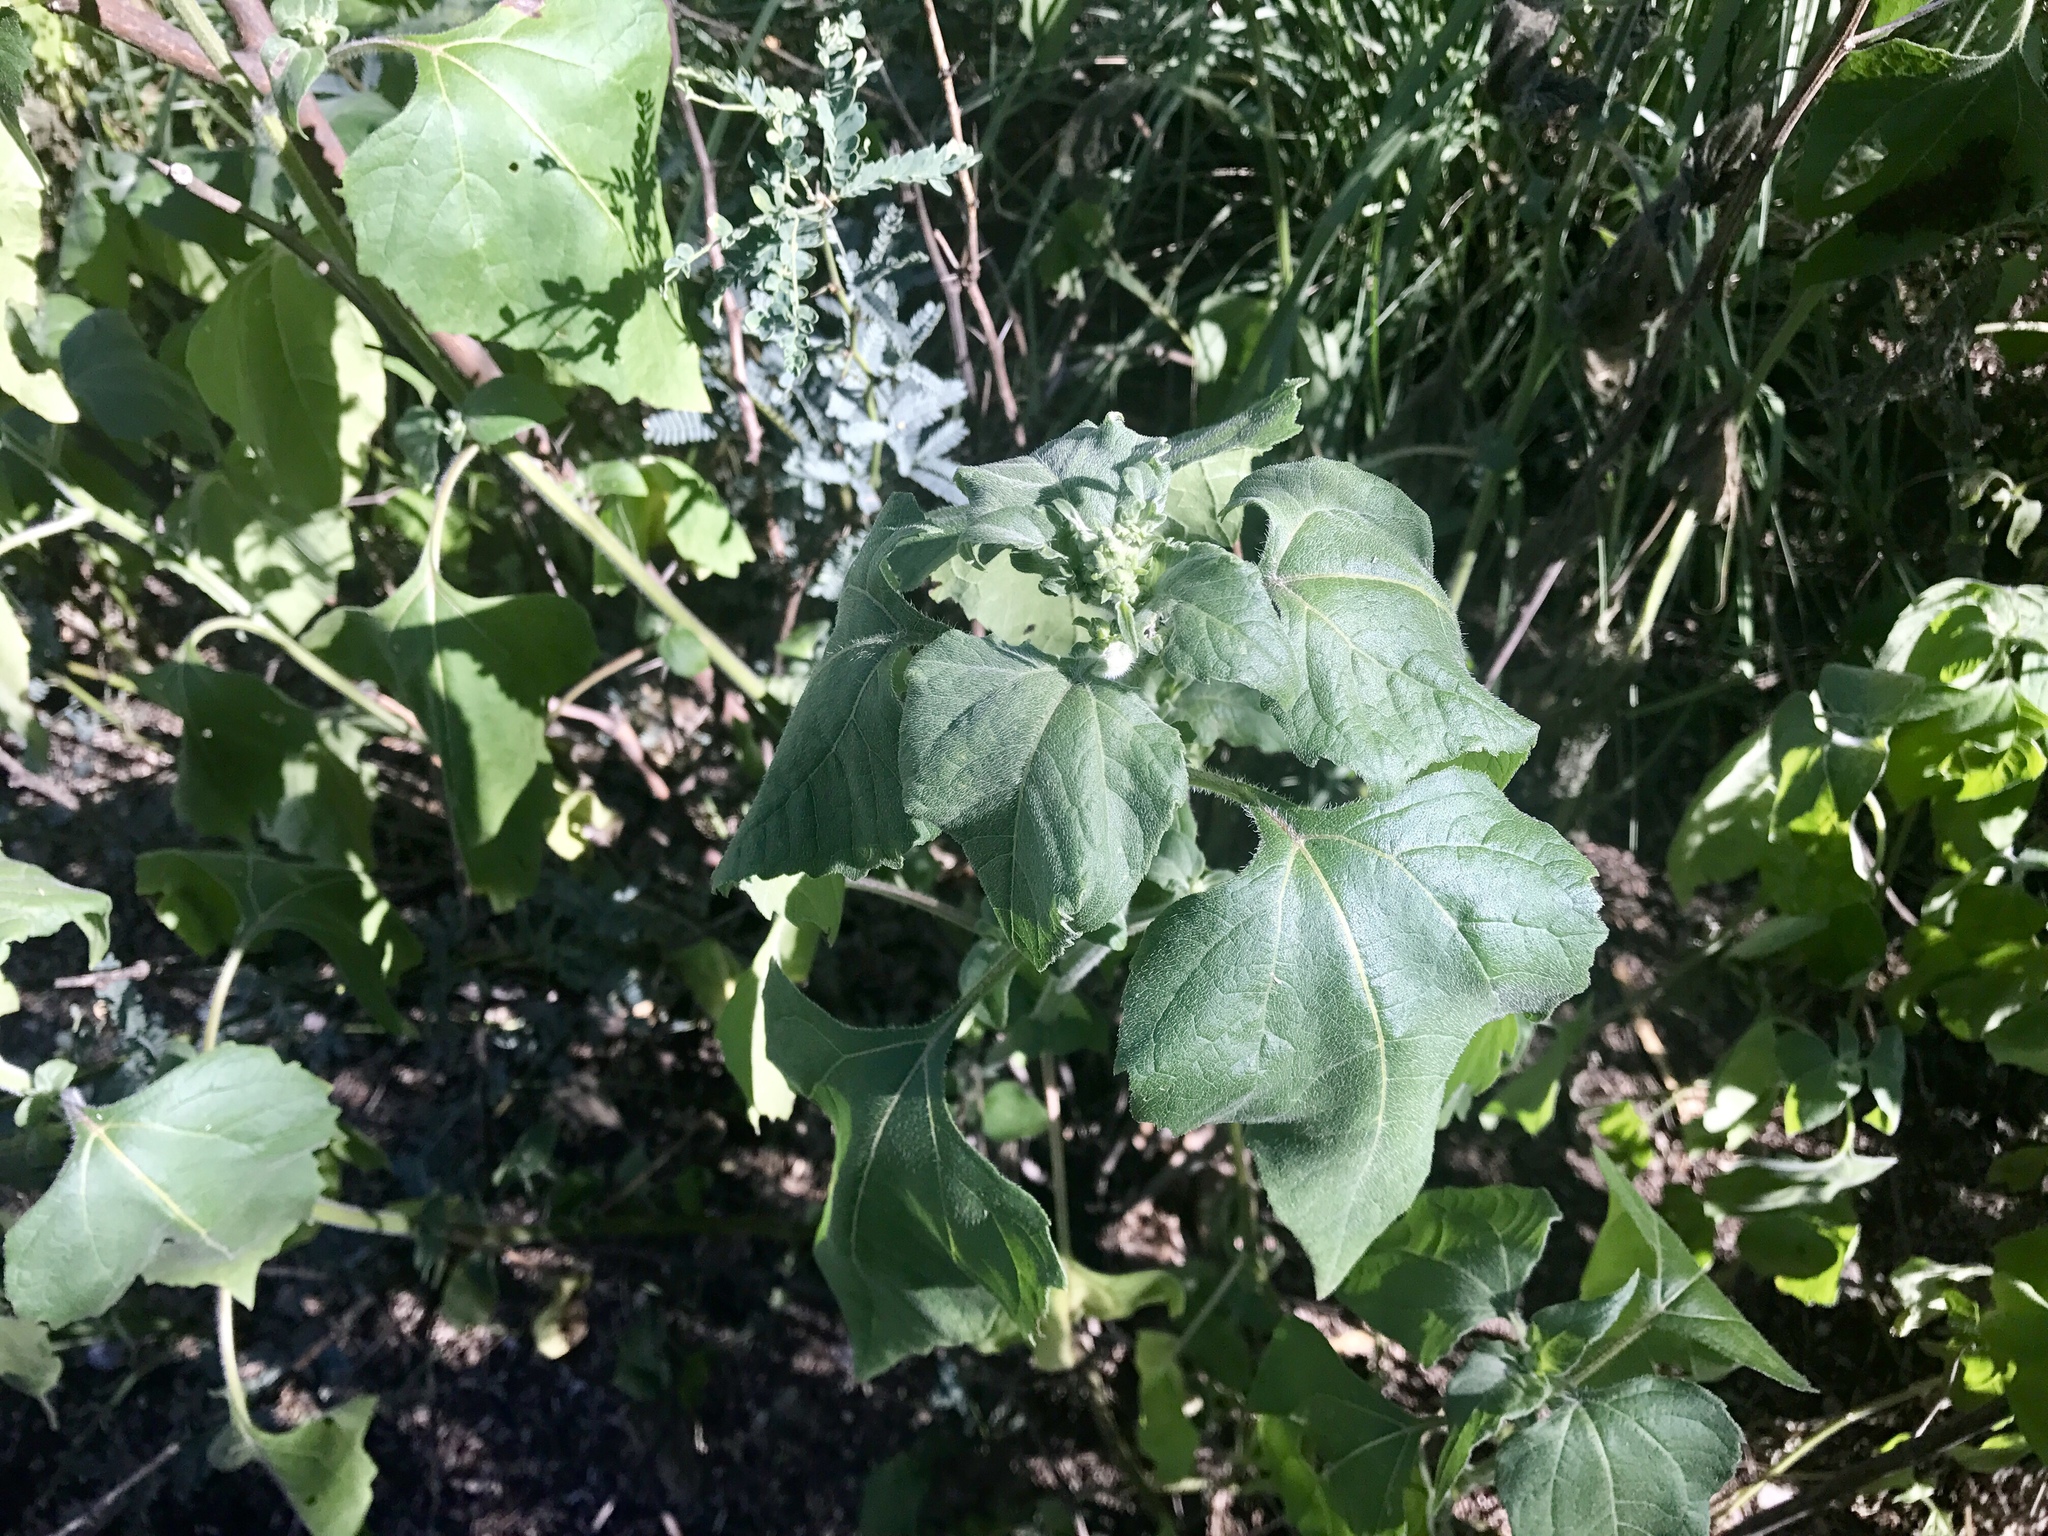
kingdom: Plantae
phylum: Tracheophyta
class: Magnoliopsida
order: Asterales
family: Asteraceae
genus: Xanthium
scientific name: Xanthium strumarium
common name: Rough cocklebur
